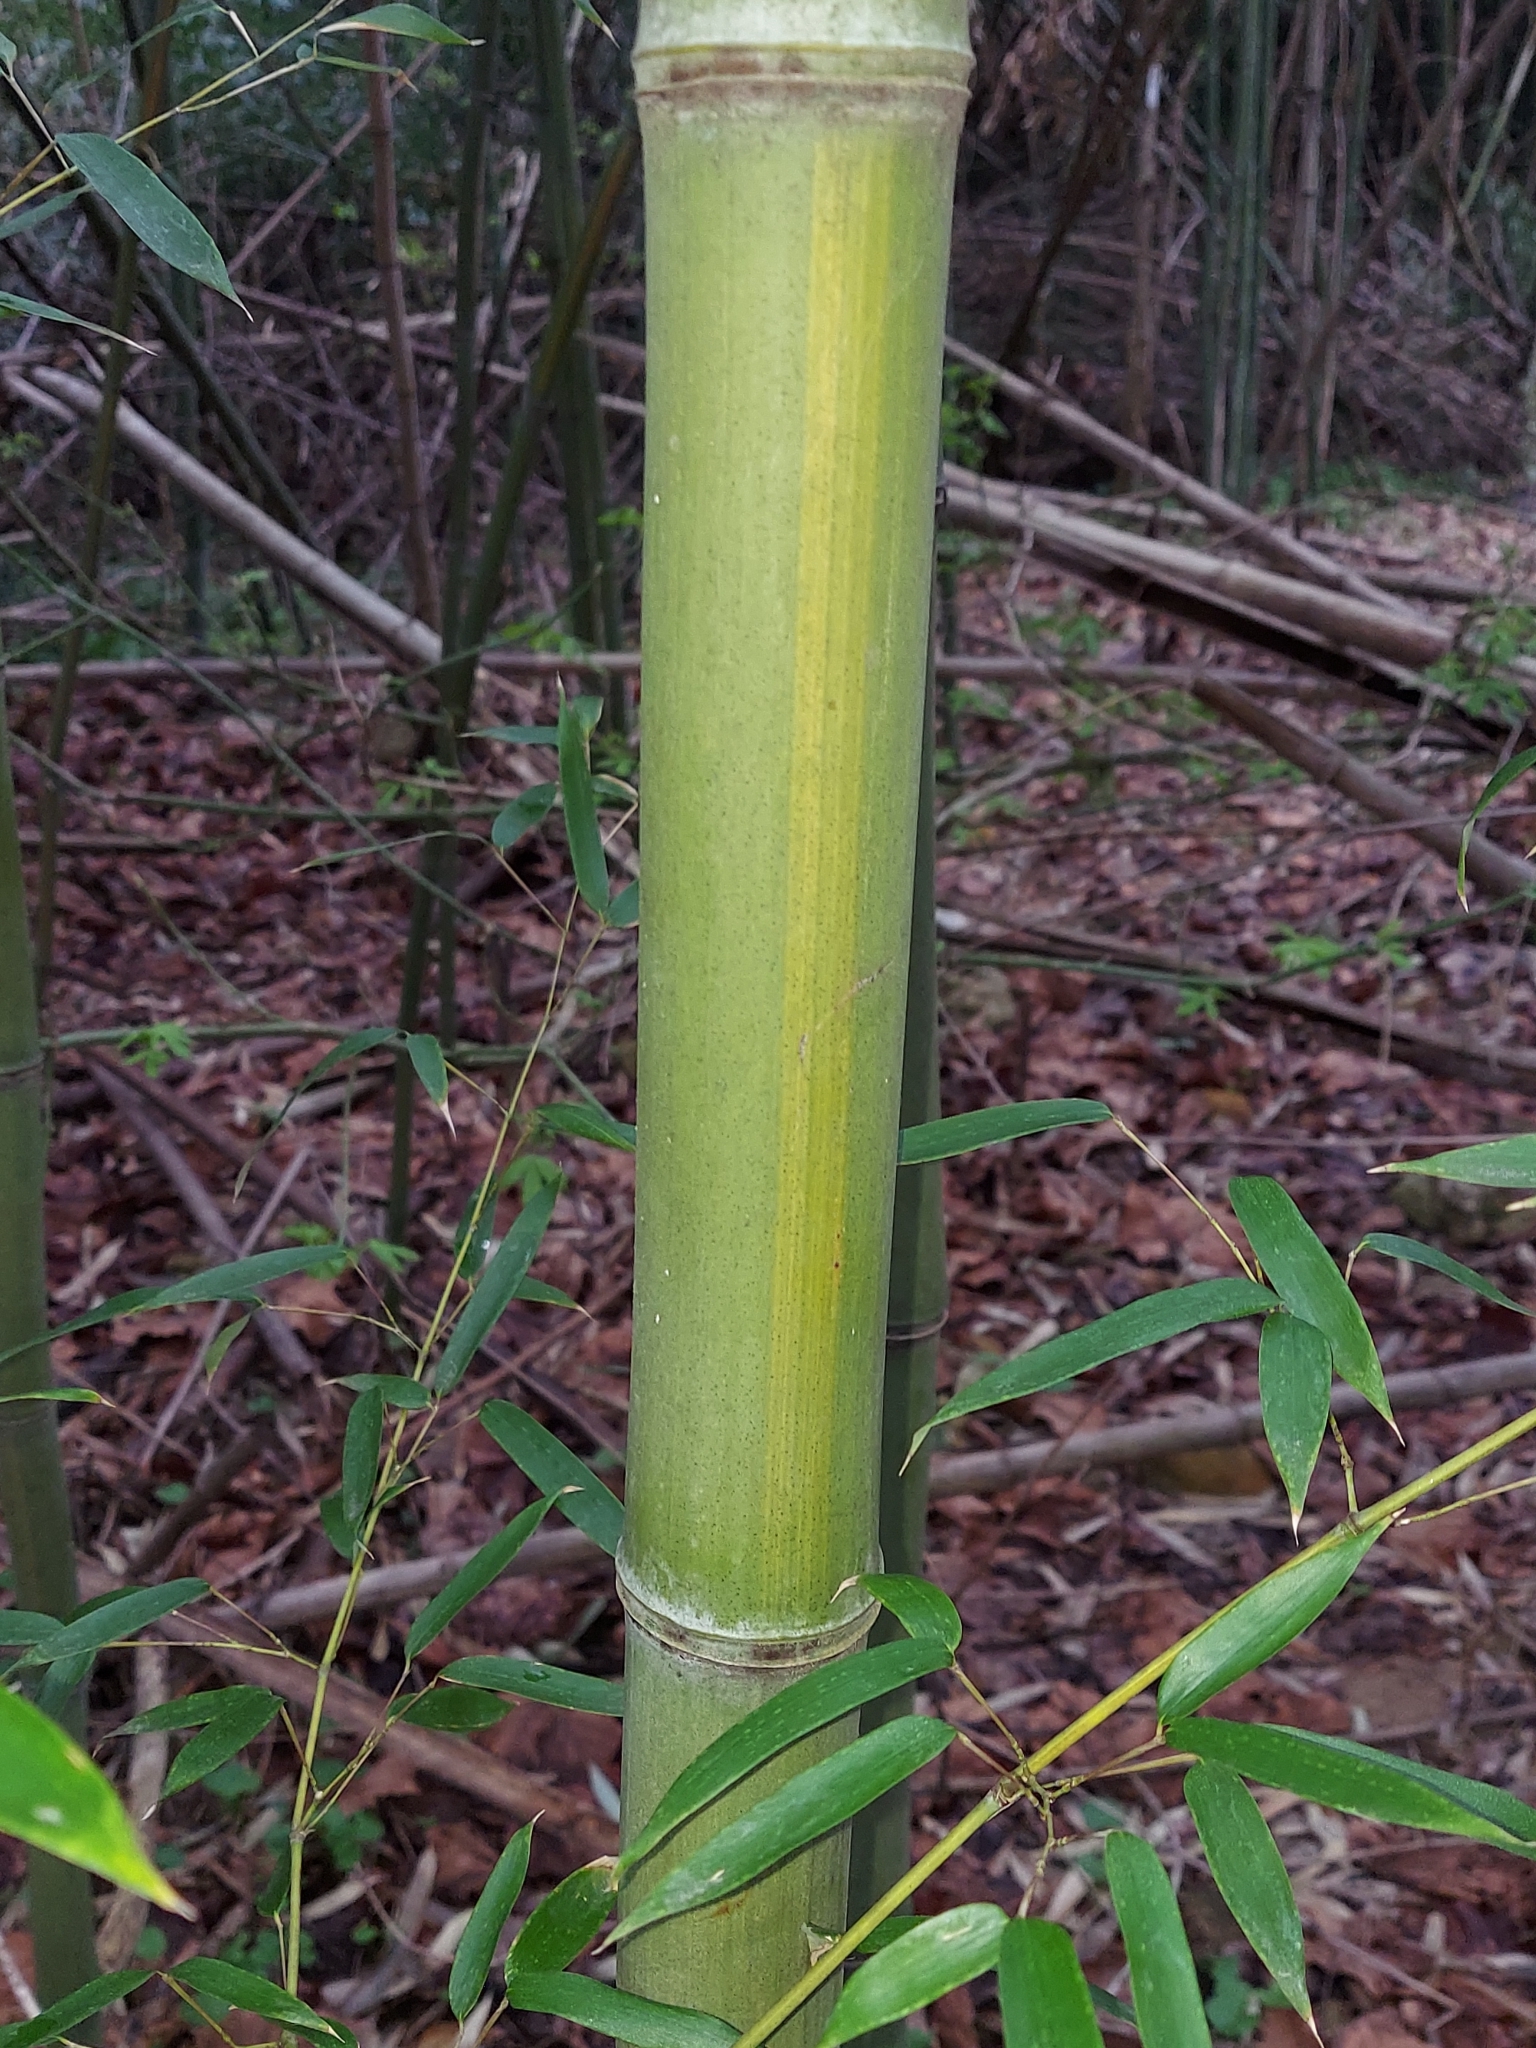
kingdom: Plantae
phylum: Tracheophyta
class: Liliopsida
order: Poales
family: Poaceae
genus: Phyllostachys
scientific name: Phyllostachys aureosulcata
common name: Yellow groove bamboo
